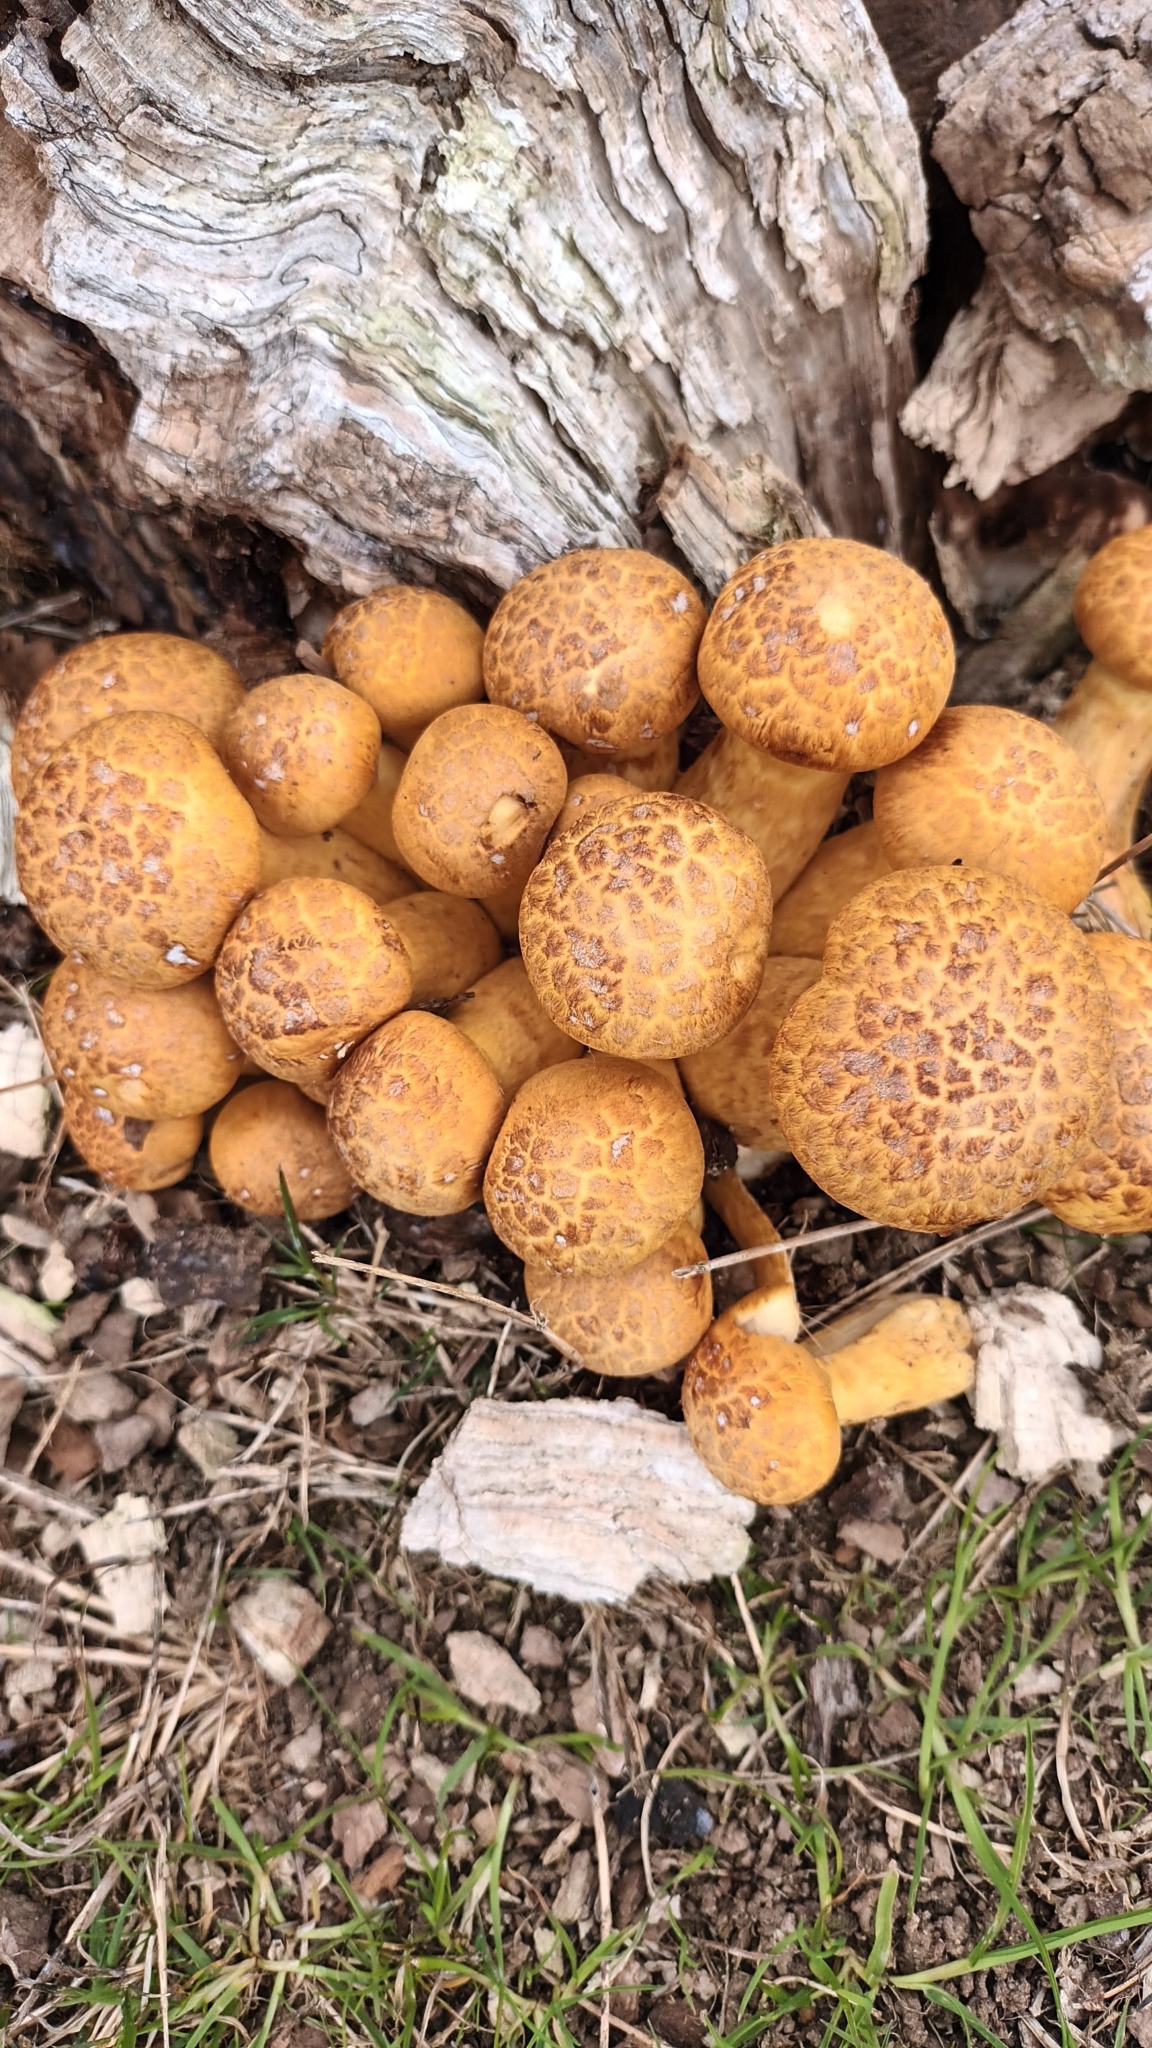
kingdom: Fungi
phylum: Basidiomycota
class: Agaricomycetes
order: Agaricales
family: Hymenogastraceae
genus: Gymnopilus
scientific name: Gymnopilus junonius
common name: Spectacular rustgill
